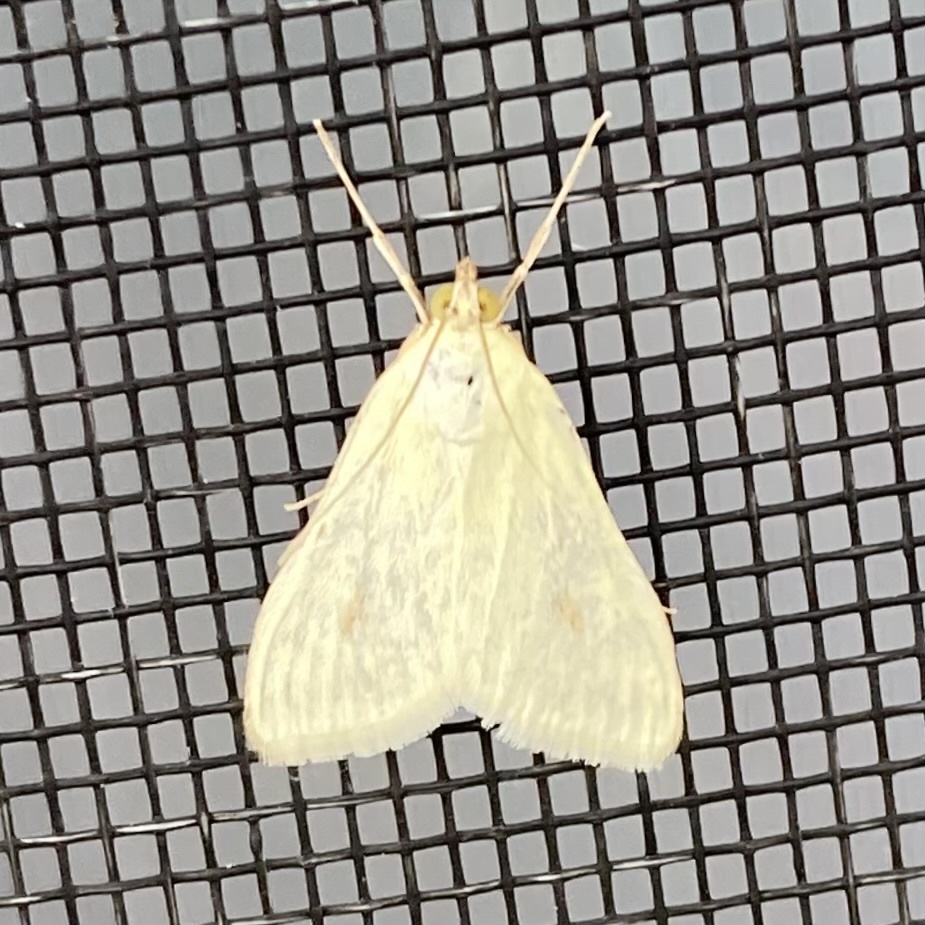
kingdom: Animalia
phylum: Arthropoda
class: Insecta
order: Lepidoptera
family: Crambidae
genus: Sitochroa
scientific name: Sitochroa palealis
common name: Greenish-yellow sitochroa moth
